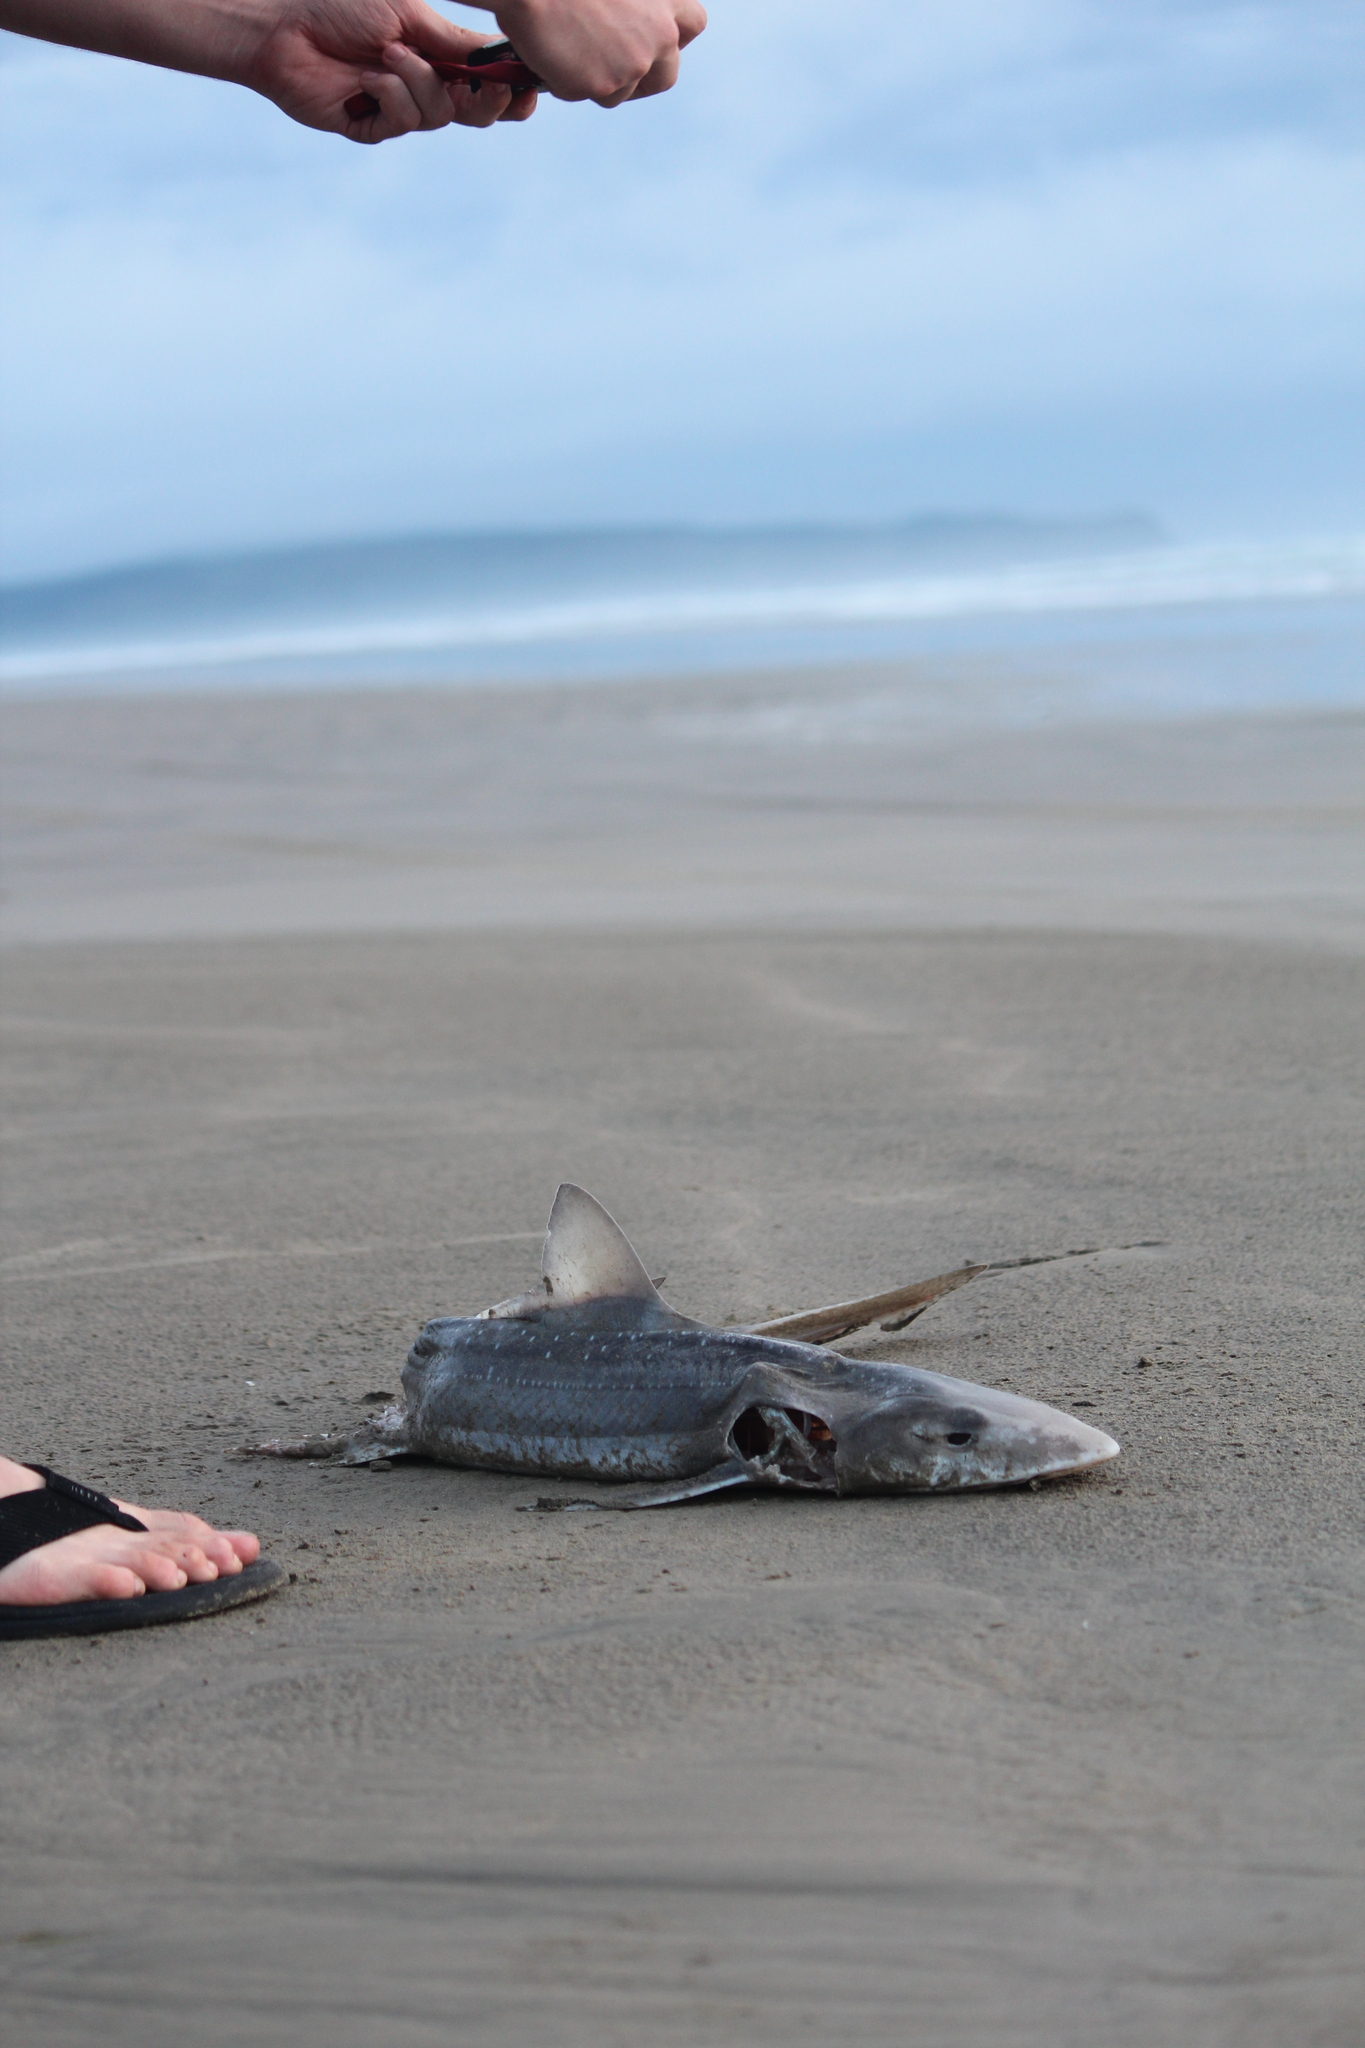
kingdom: Animalia
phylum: Chordata
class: Elasmobranchii
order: Carcharhiniformes
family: Triakidae
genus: Mustelus
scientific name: Mustelus lenticulatus
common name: Gummy shark
